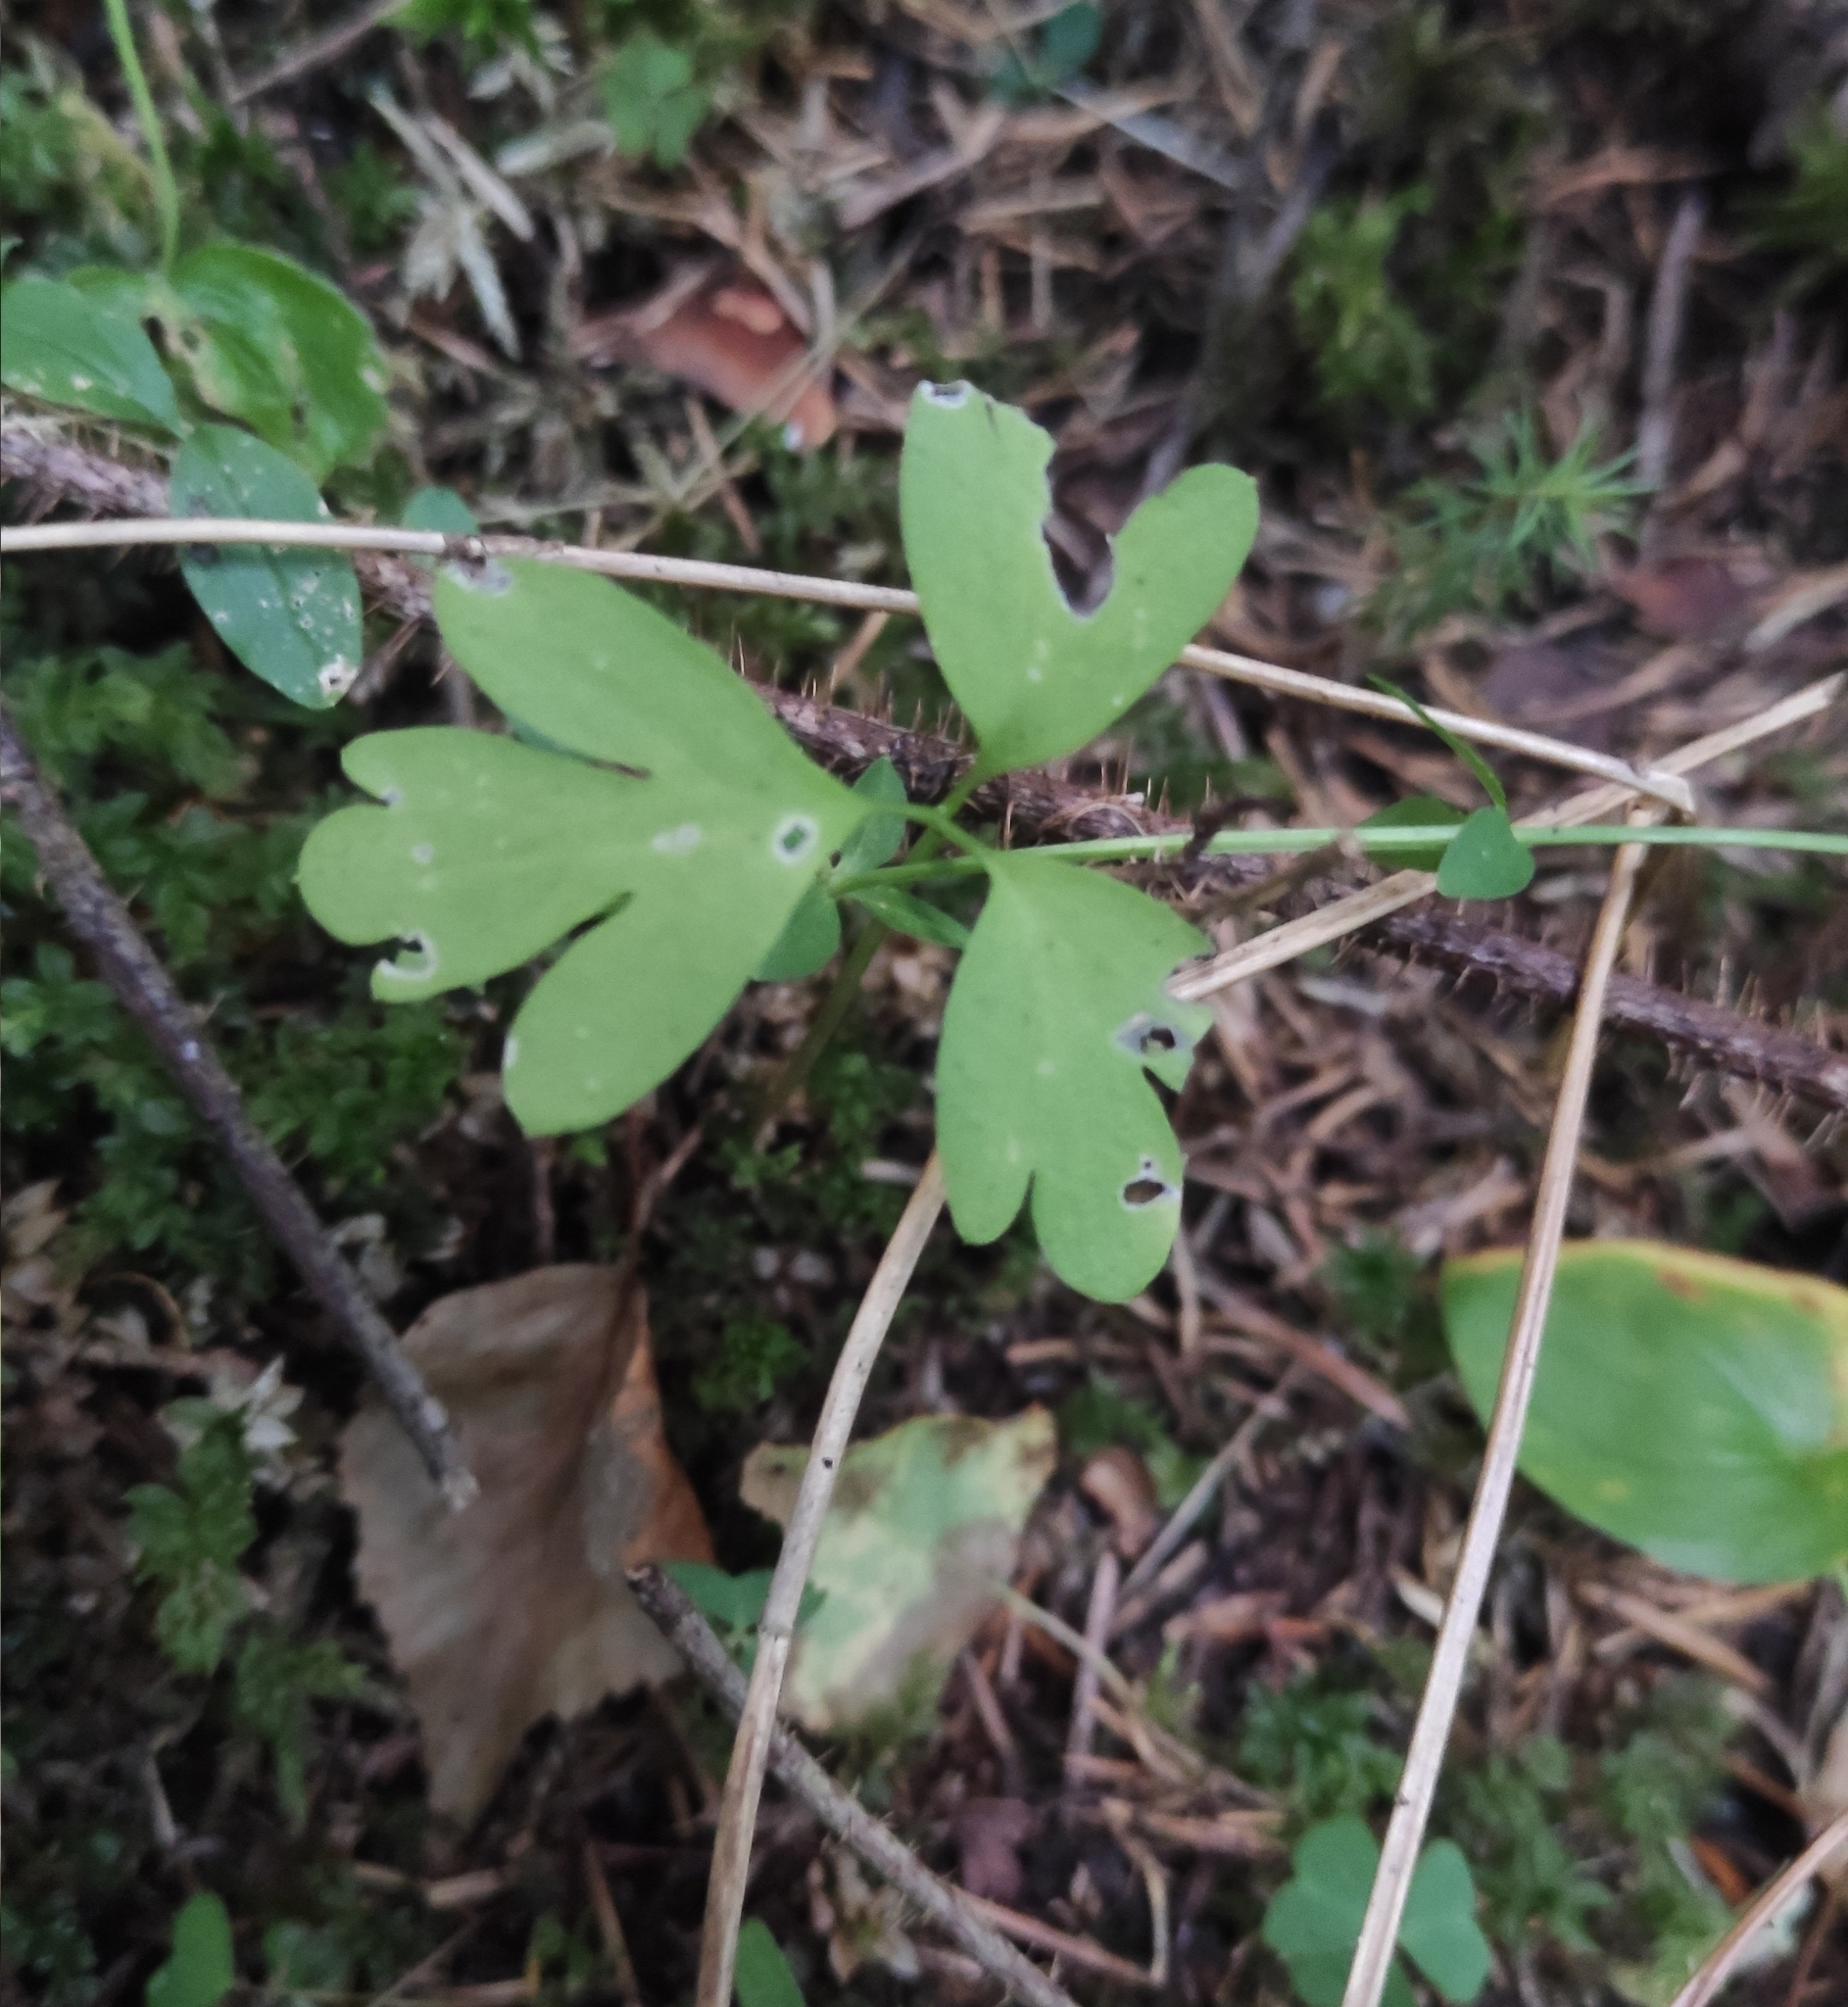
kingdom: Plantae
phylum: Tracheophyta
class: Magnoliopsida
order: Dipsacales
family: Viburnaceae
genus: Adoxa
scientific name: Adoxa moschatellina
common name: Moschatel
